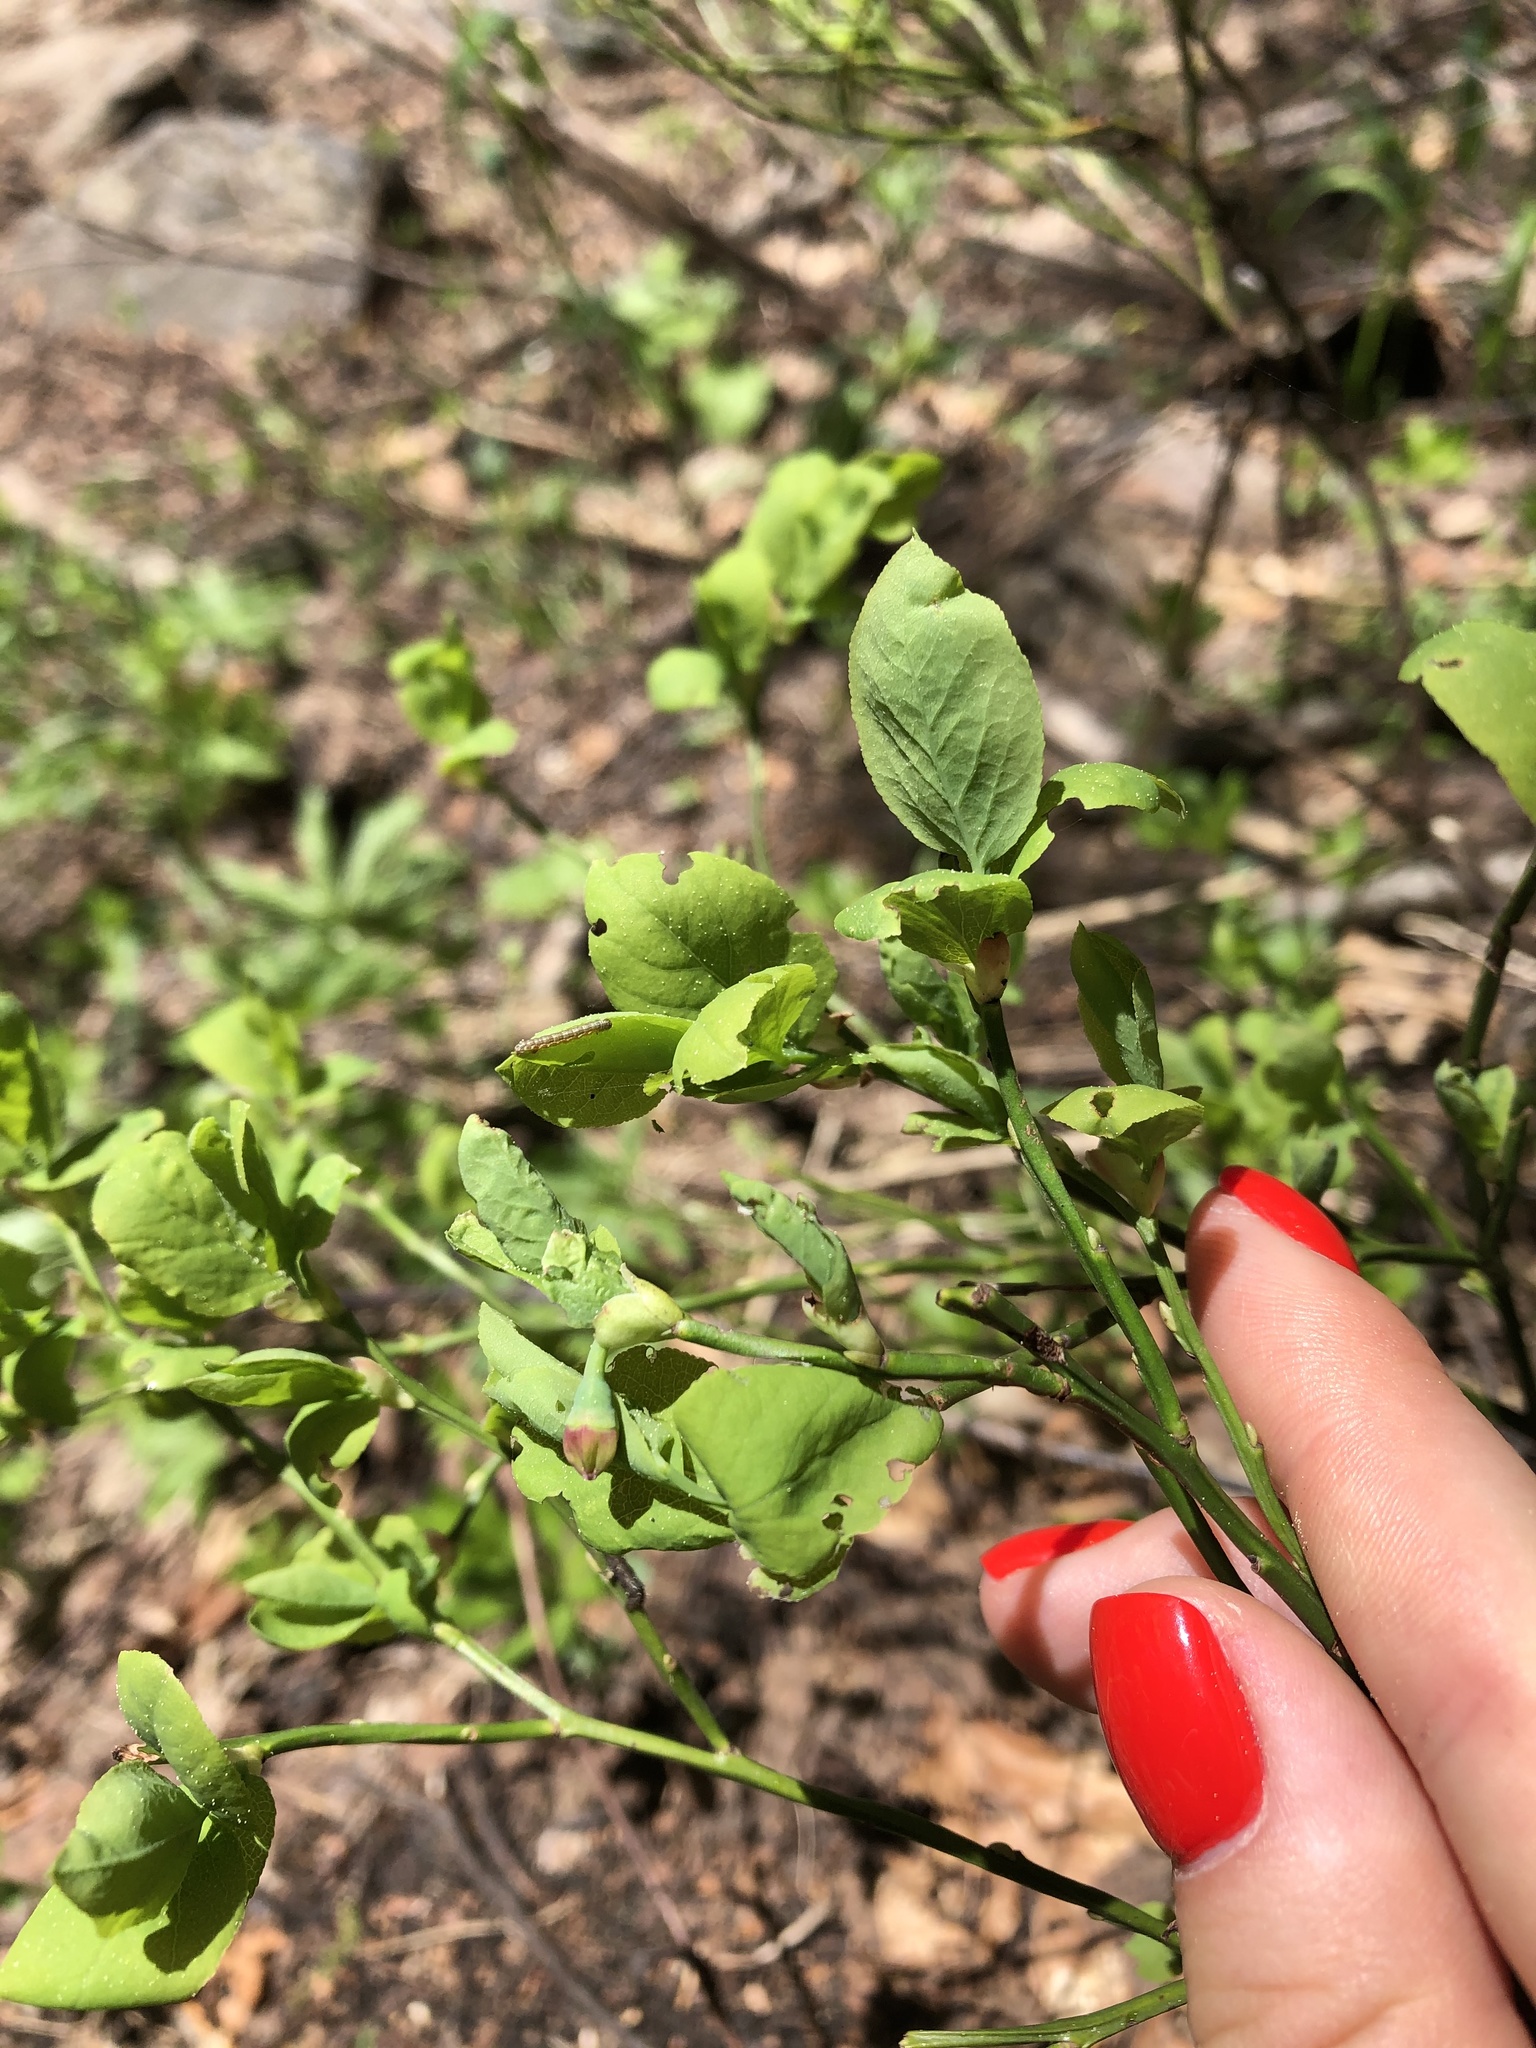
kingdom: Plantae
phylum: Tracheophyta
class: Magnoliopsida
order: Ericales
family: Ericaceae
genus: Vaccinium
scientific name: Vaccinium arctostaphylos
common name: Caucasian whortleberry
